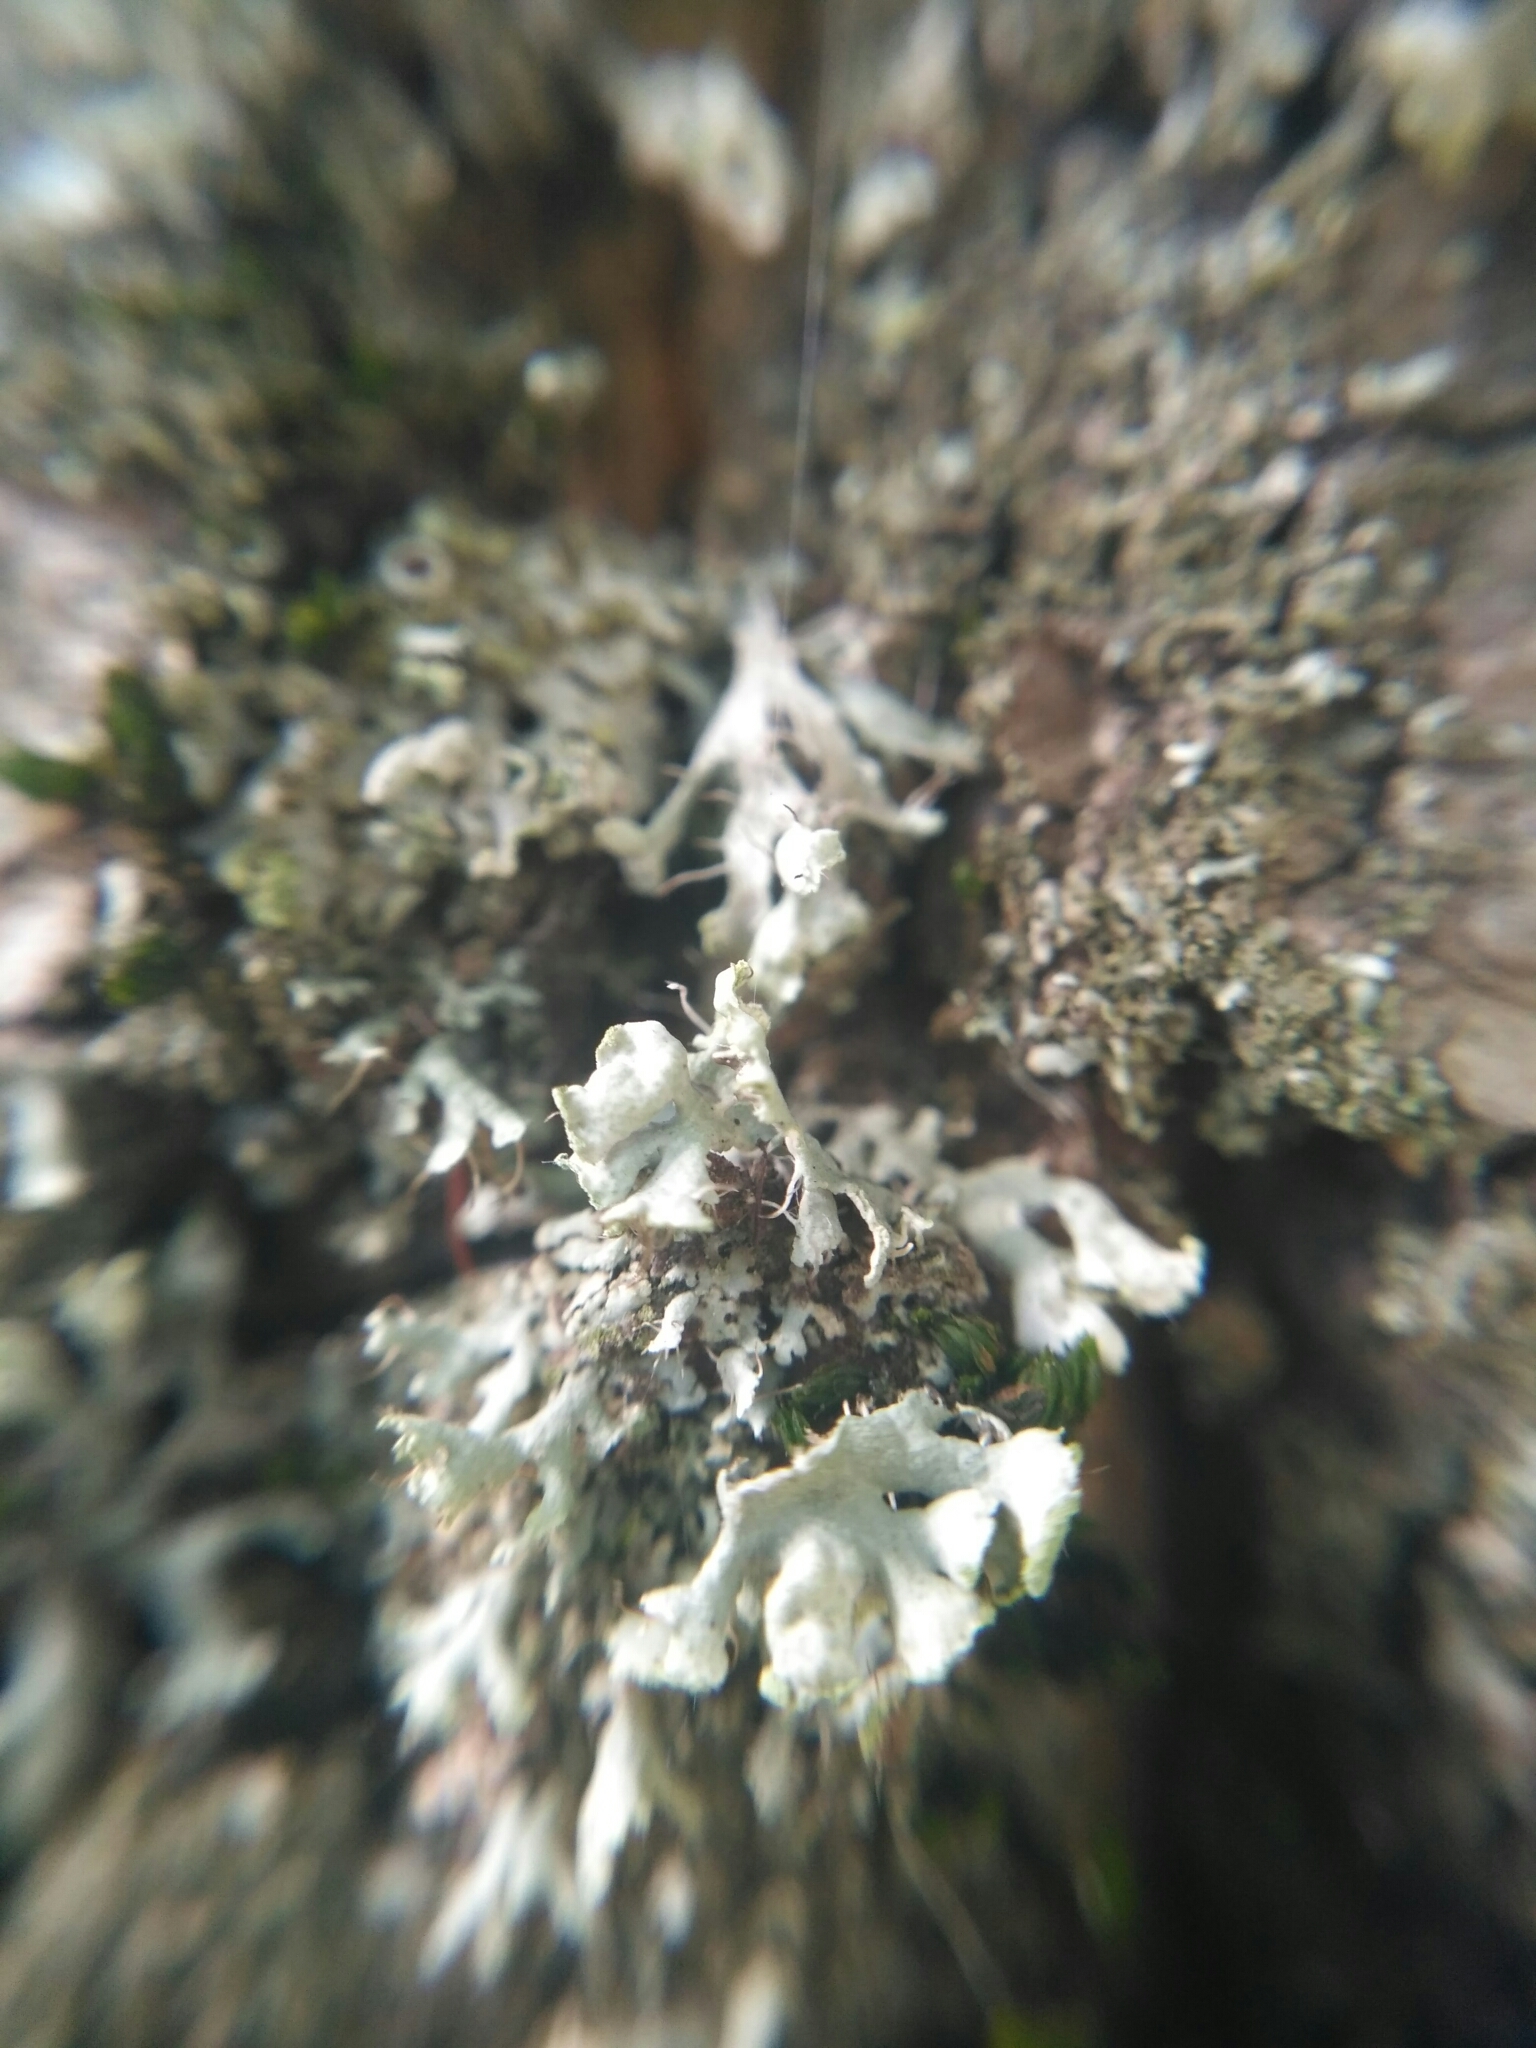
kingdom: Fungi
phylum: Ascomycota
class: Lecanoromycetes
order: Caliciales
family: Physciaceae
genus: Physcia
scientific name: Physcia tenella
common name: Fringed rosette lichen
